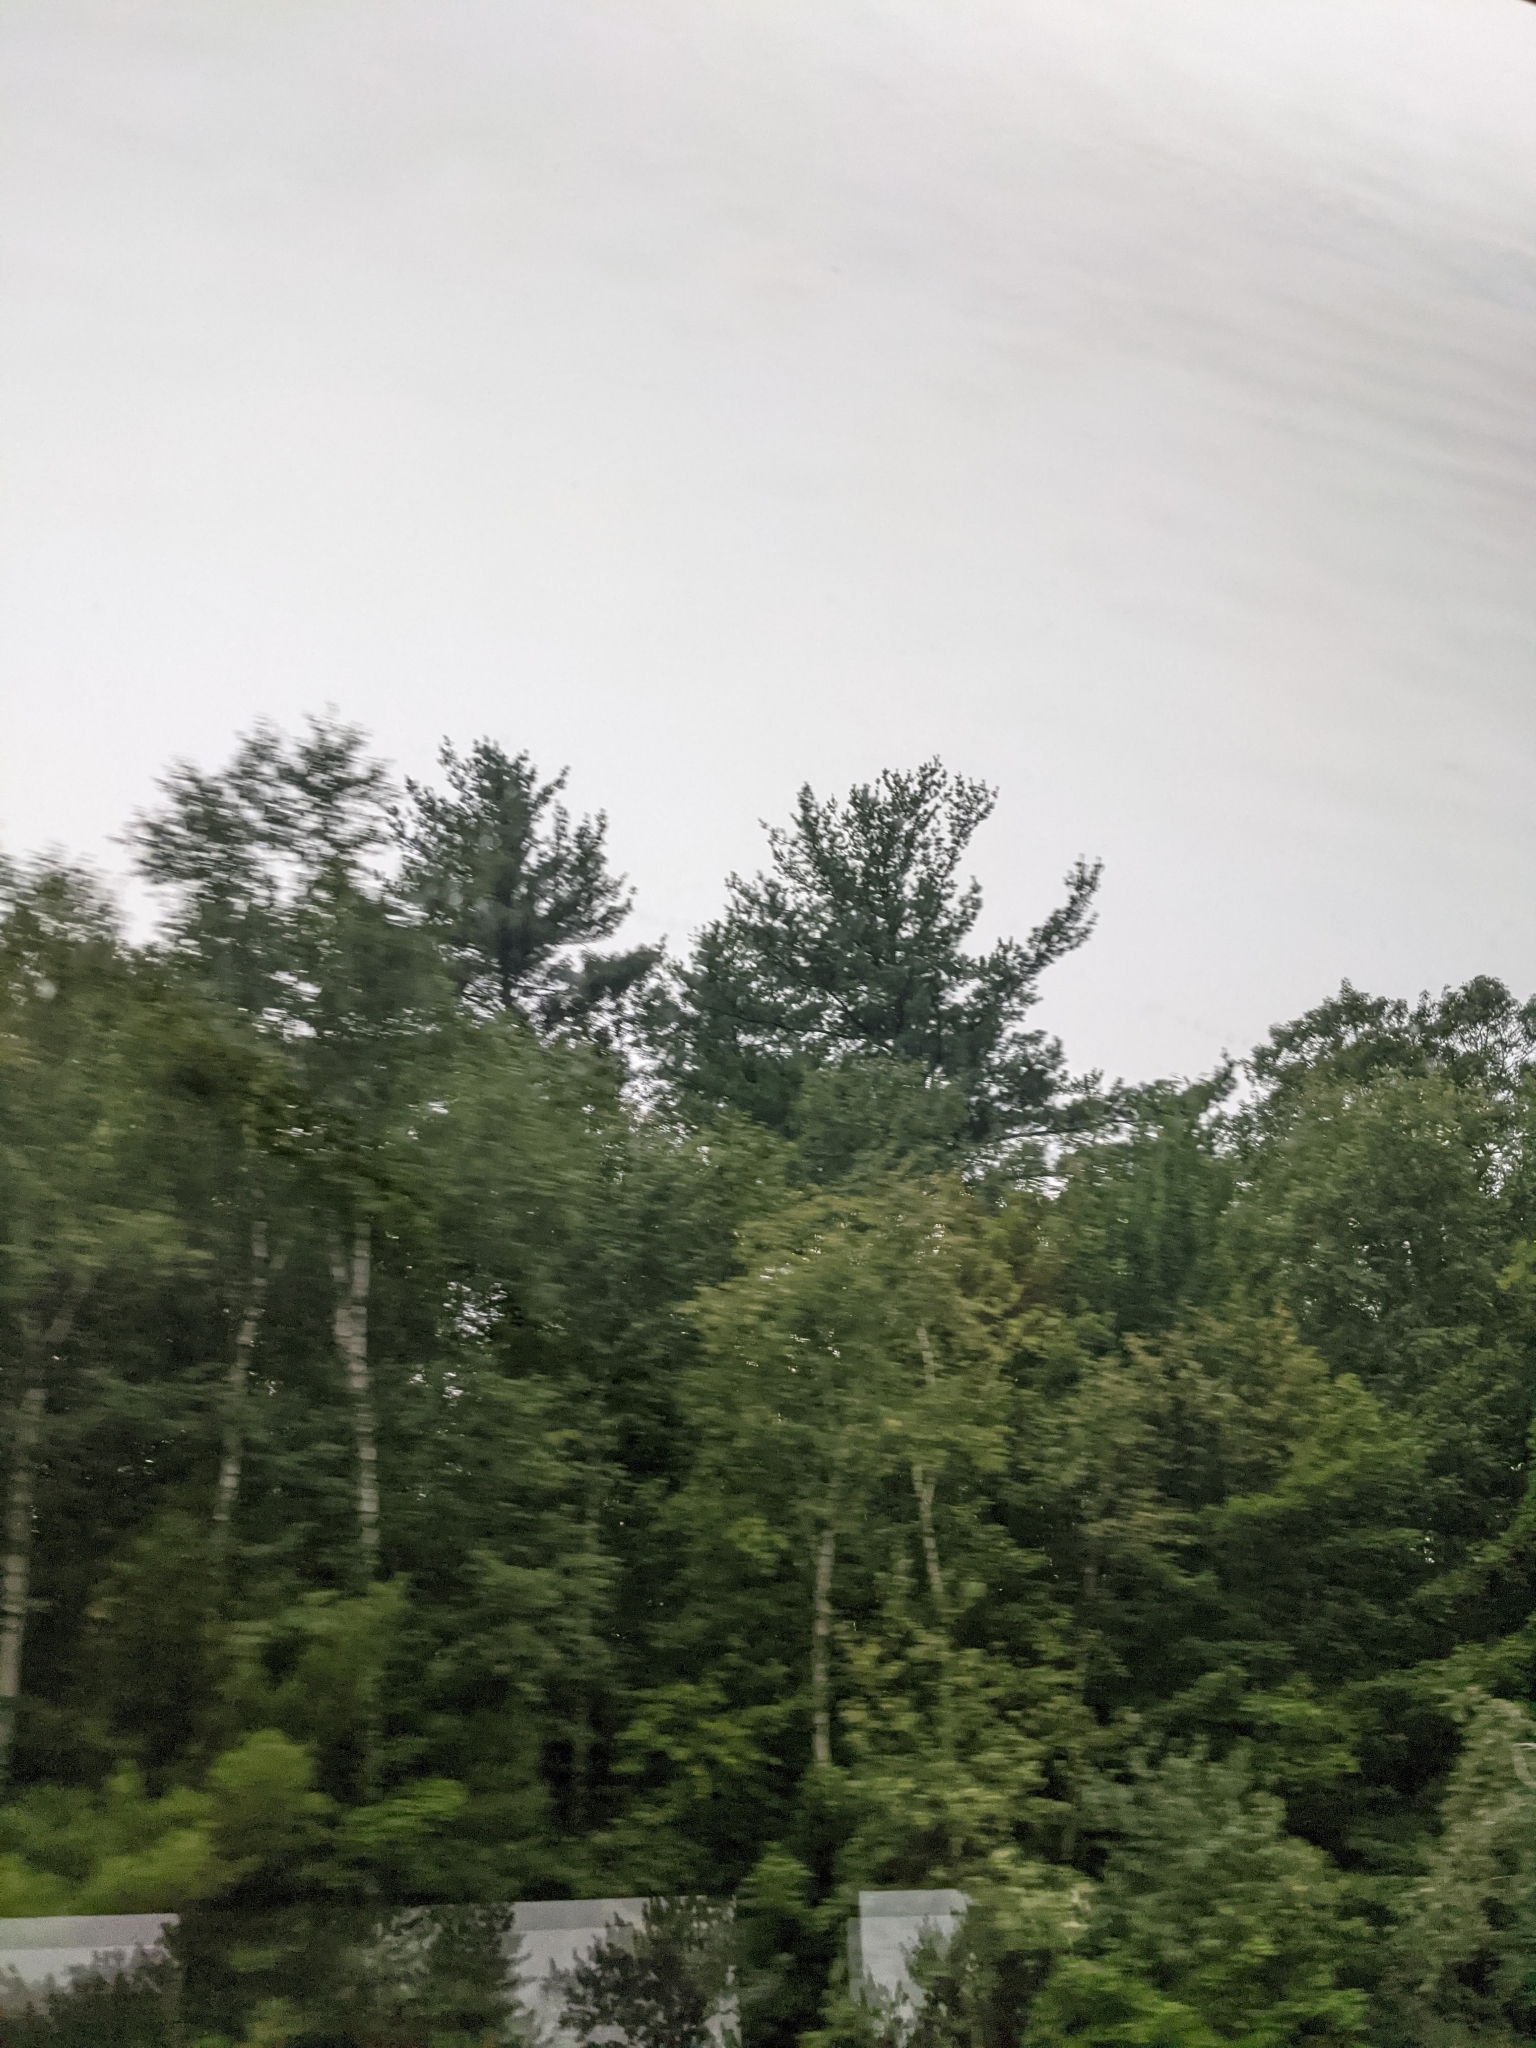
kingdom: Plantae
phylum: Tracheophyta
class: Pinopsida
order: Pinales
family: Pinaceae
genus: Pinus
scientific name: Pinus strobus
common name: Weymouth pine
